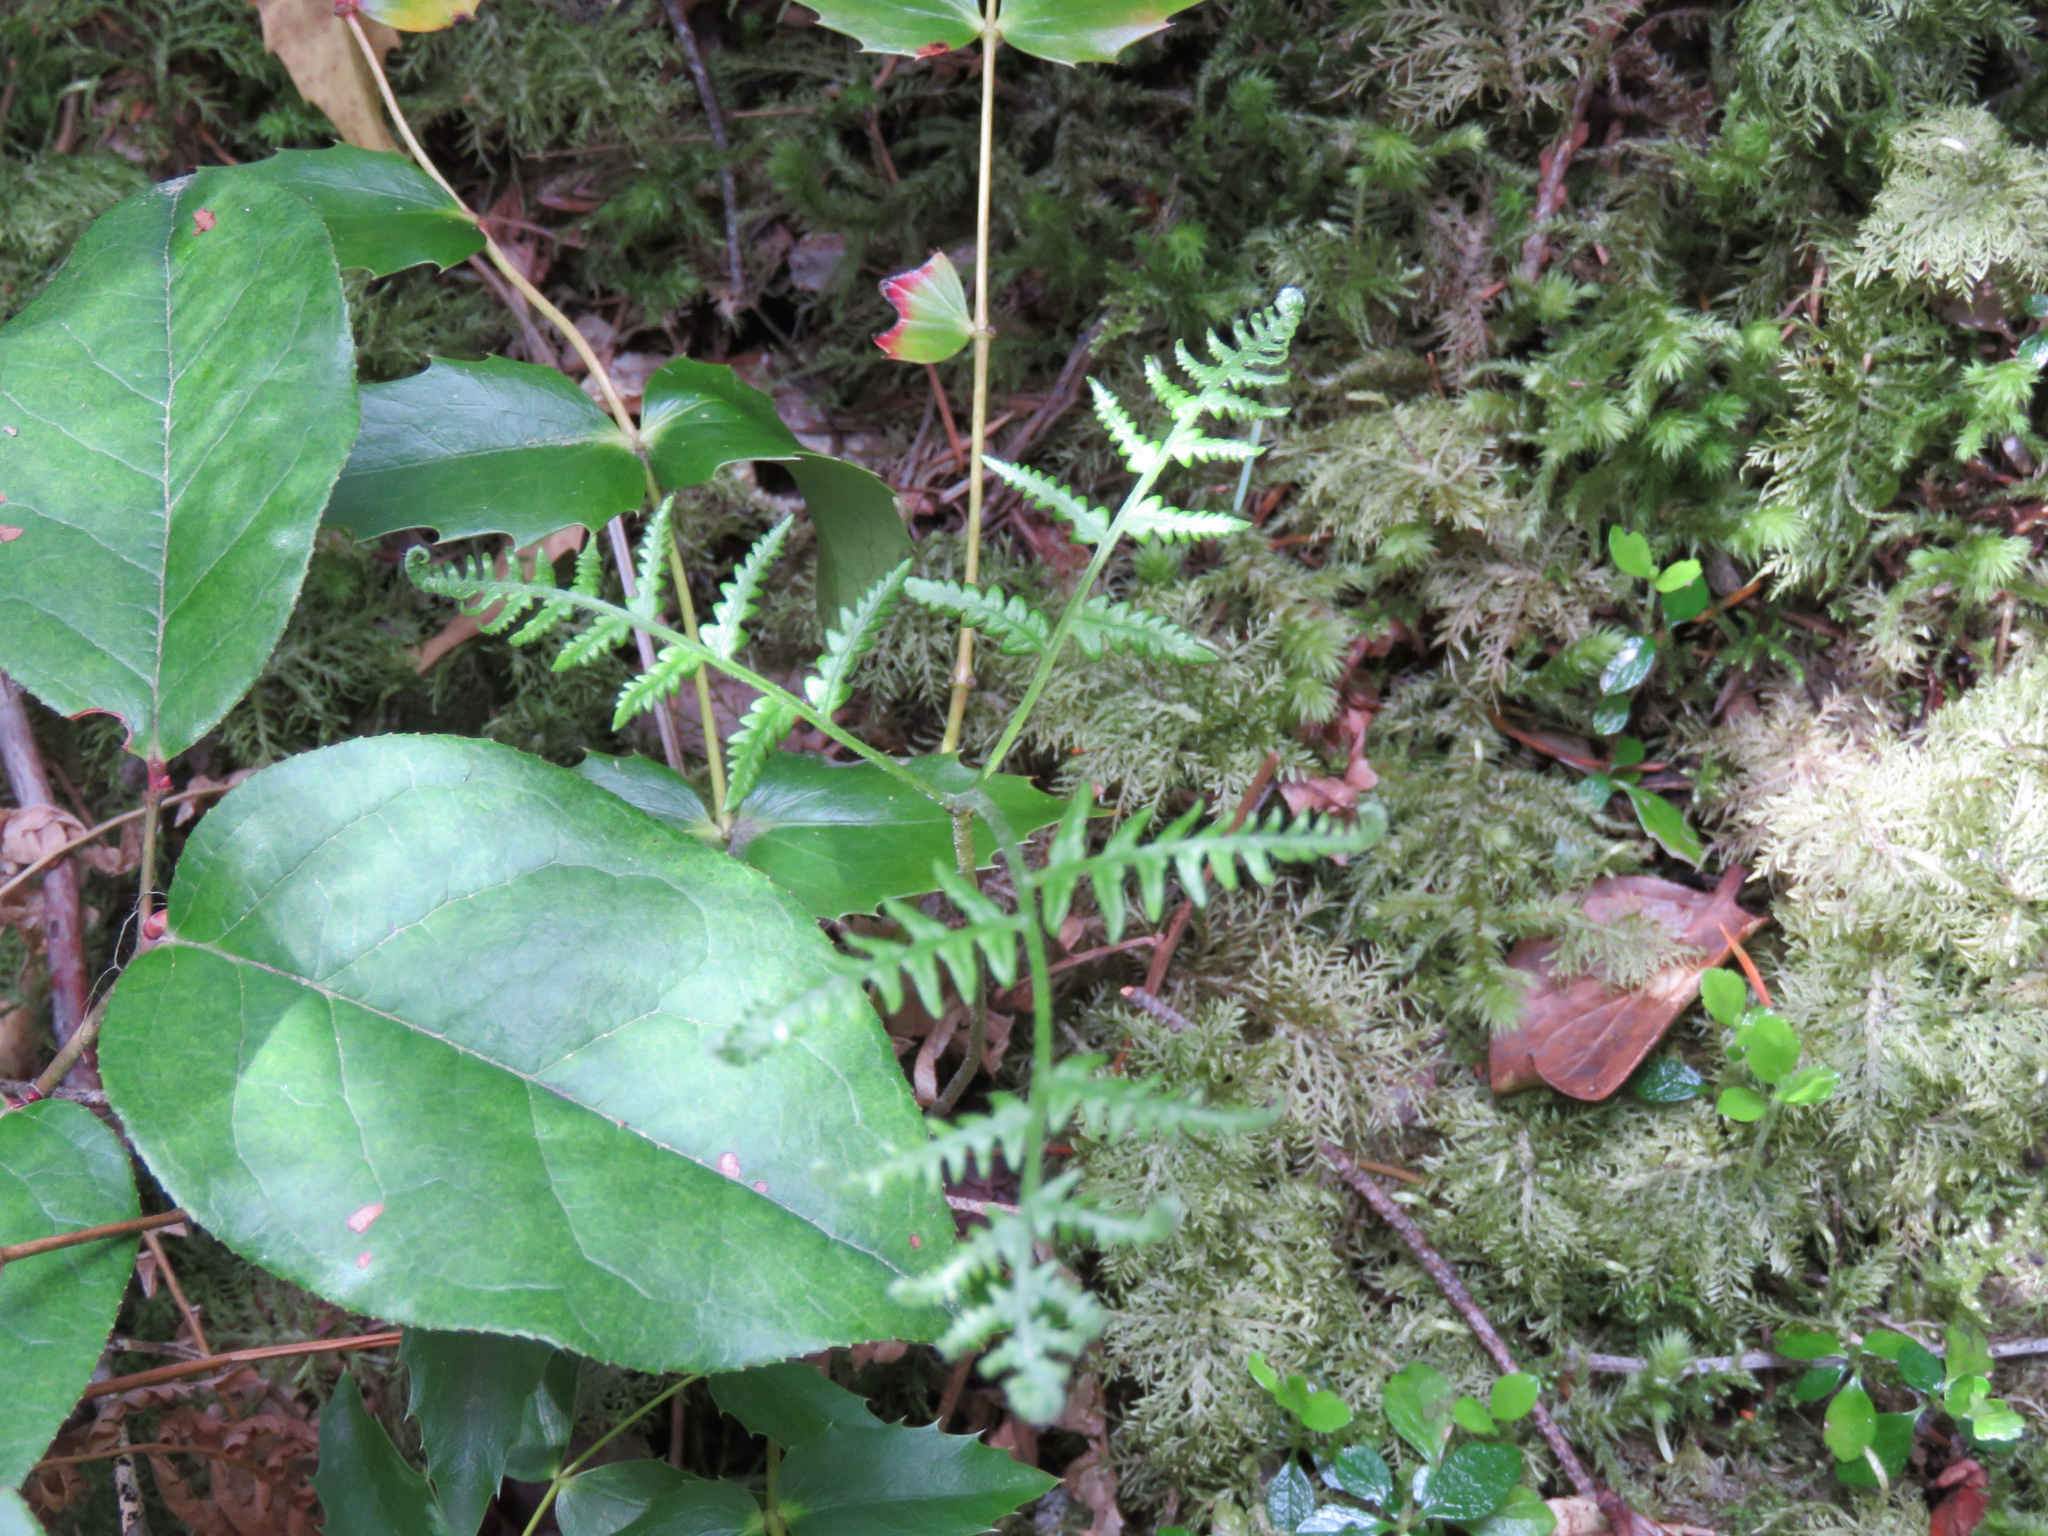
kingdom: Plantae
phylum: Tracheophyta
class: Polypodiopsida
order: Polypodiales
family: Dennstaedtiaceae
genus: Pteridium
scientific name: Pteridium aquilinum
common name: Bracken
